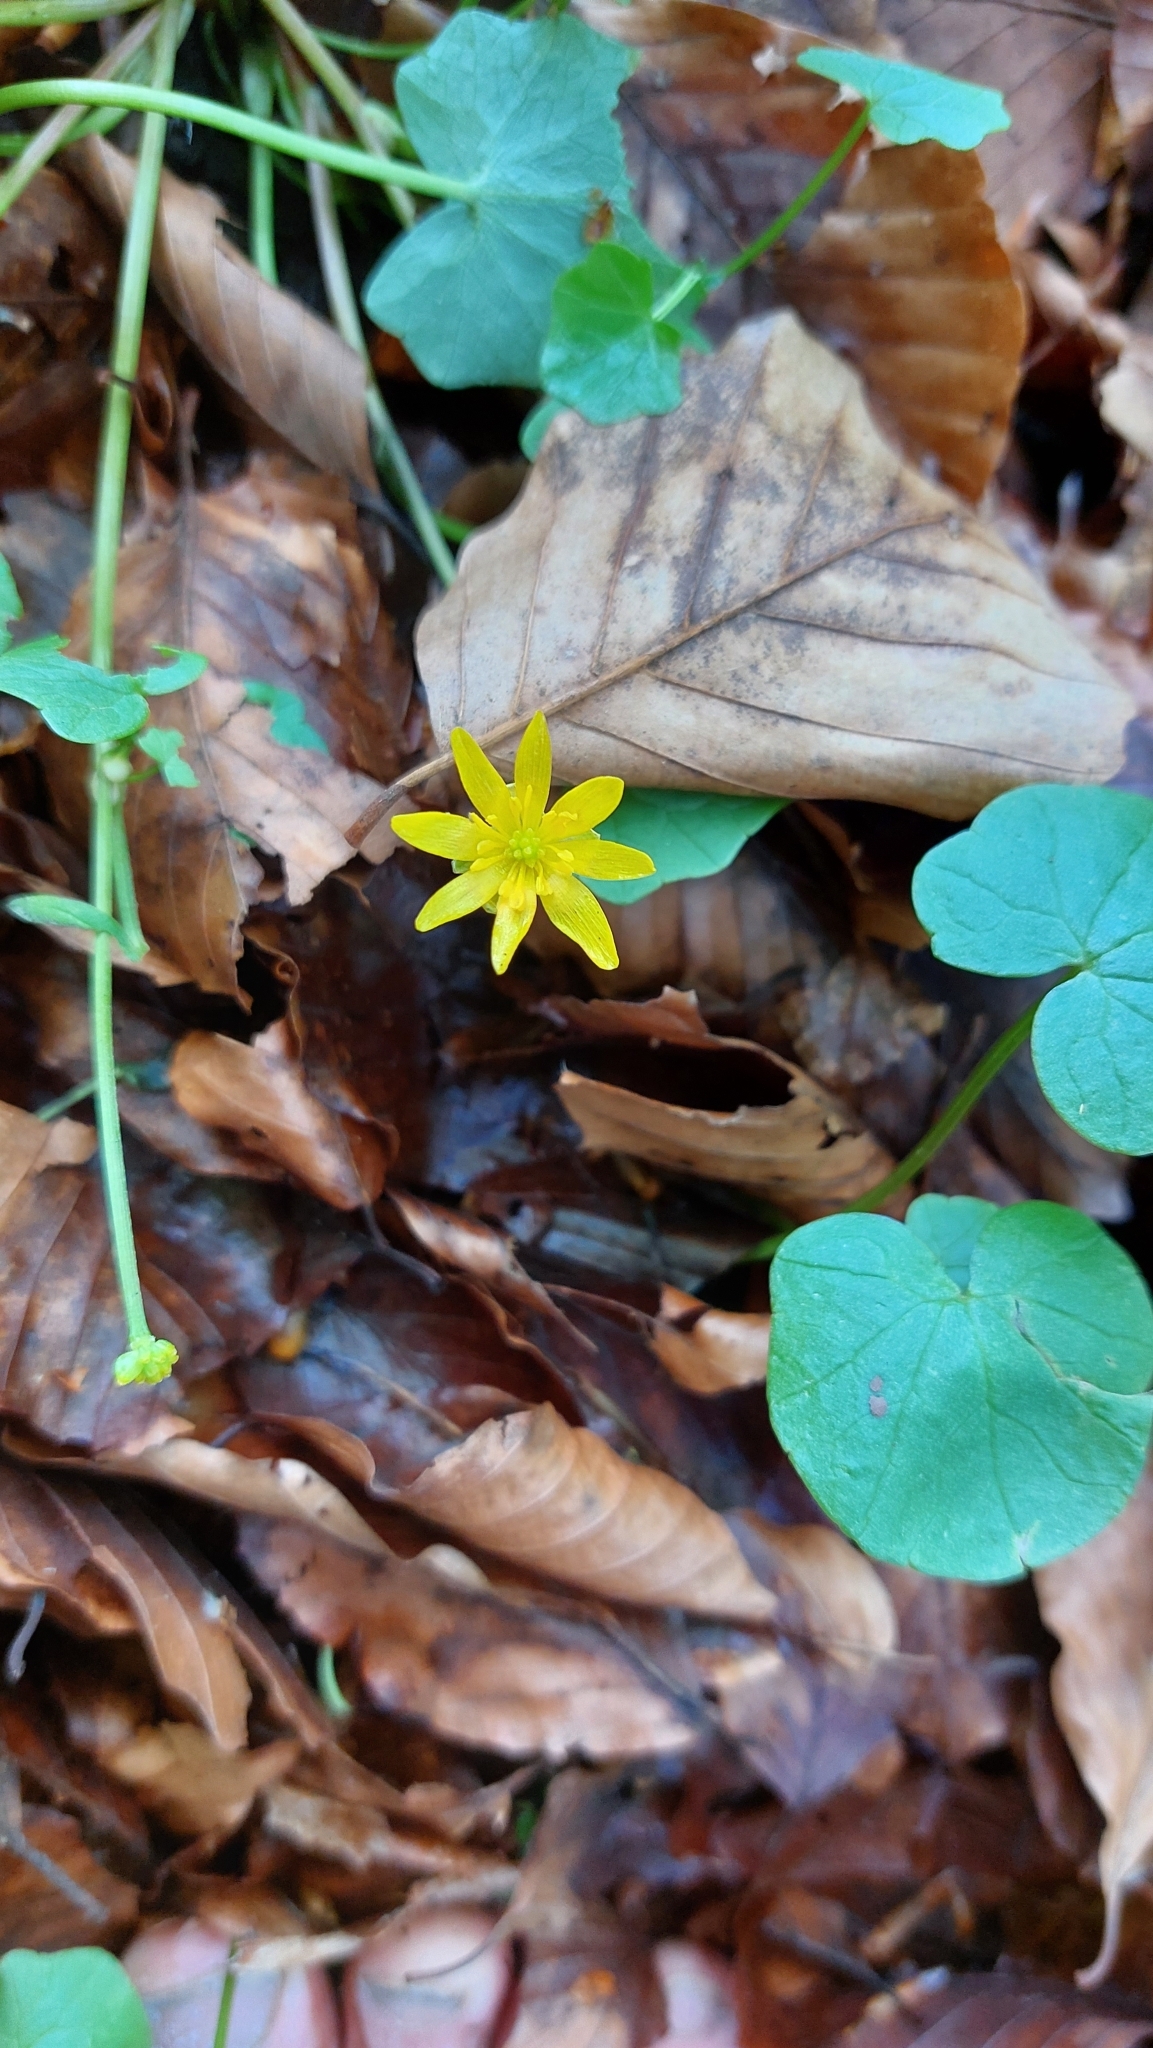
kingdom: Plantae
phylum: Tracheophyta
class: Magnoliopsida
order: Ranunculales
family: Ranunculaceae
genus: Ficaria
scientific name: Ficaria verna
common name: Lesser celandine
